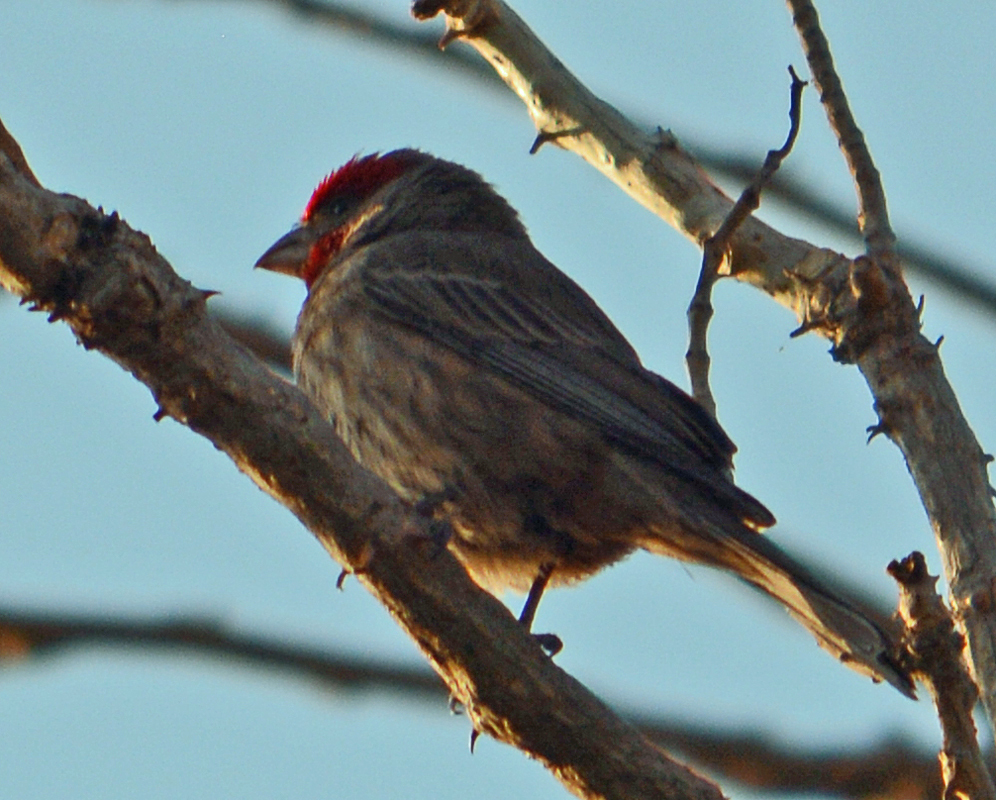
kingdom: Animalia
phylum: Chordata
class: Aves
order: Passeriformes
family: Fringillidae
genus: Haemorhous
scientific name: Haemorhous mexicanus
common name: House finch
